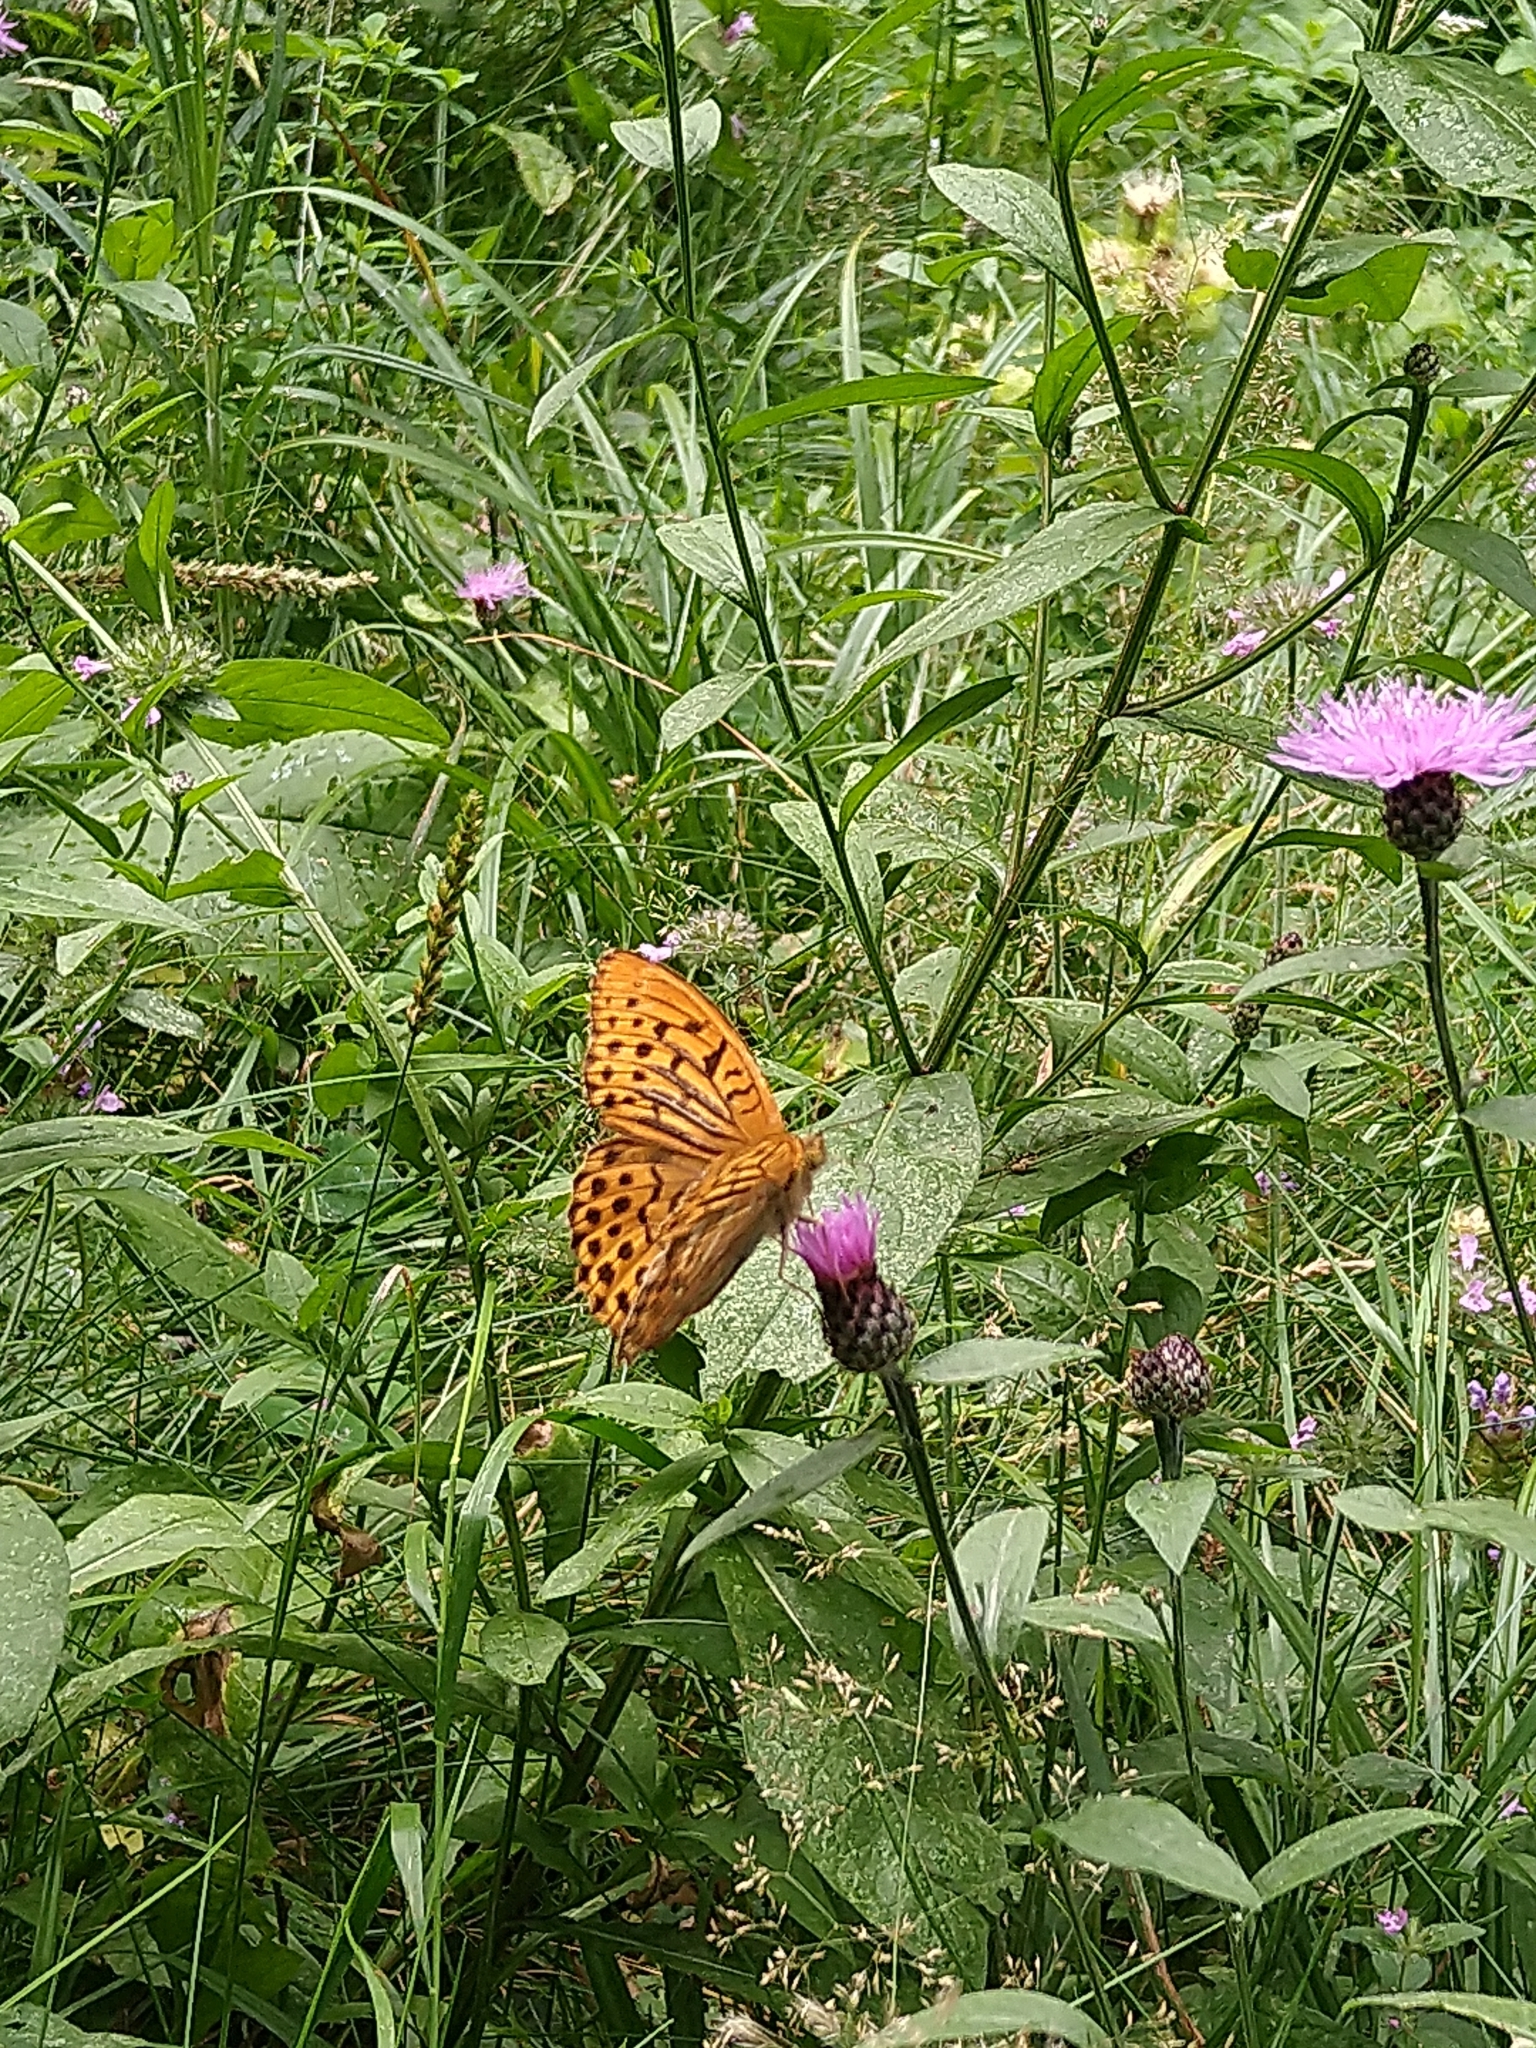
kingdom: Animalia
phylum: Arthropoda
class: Insecta
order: Lepidoptera
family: Nymphalidae
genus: Argynnis
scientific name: Argynnis paphia
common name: Silver-washed fritillary
